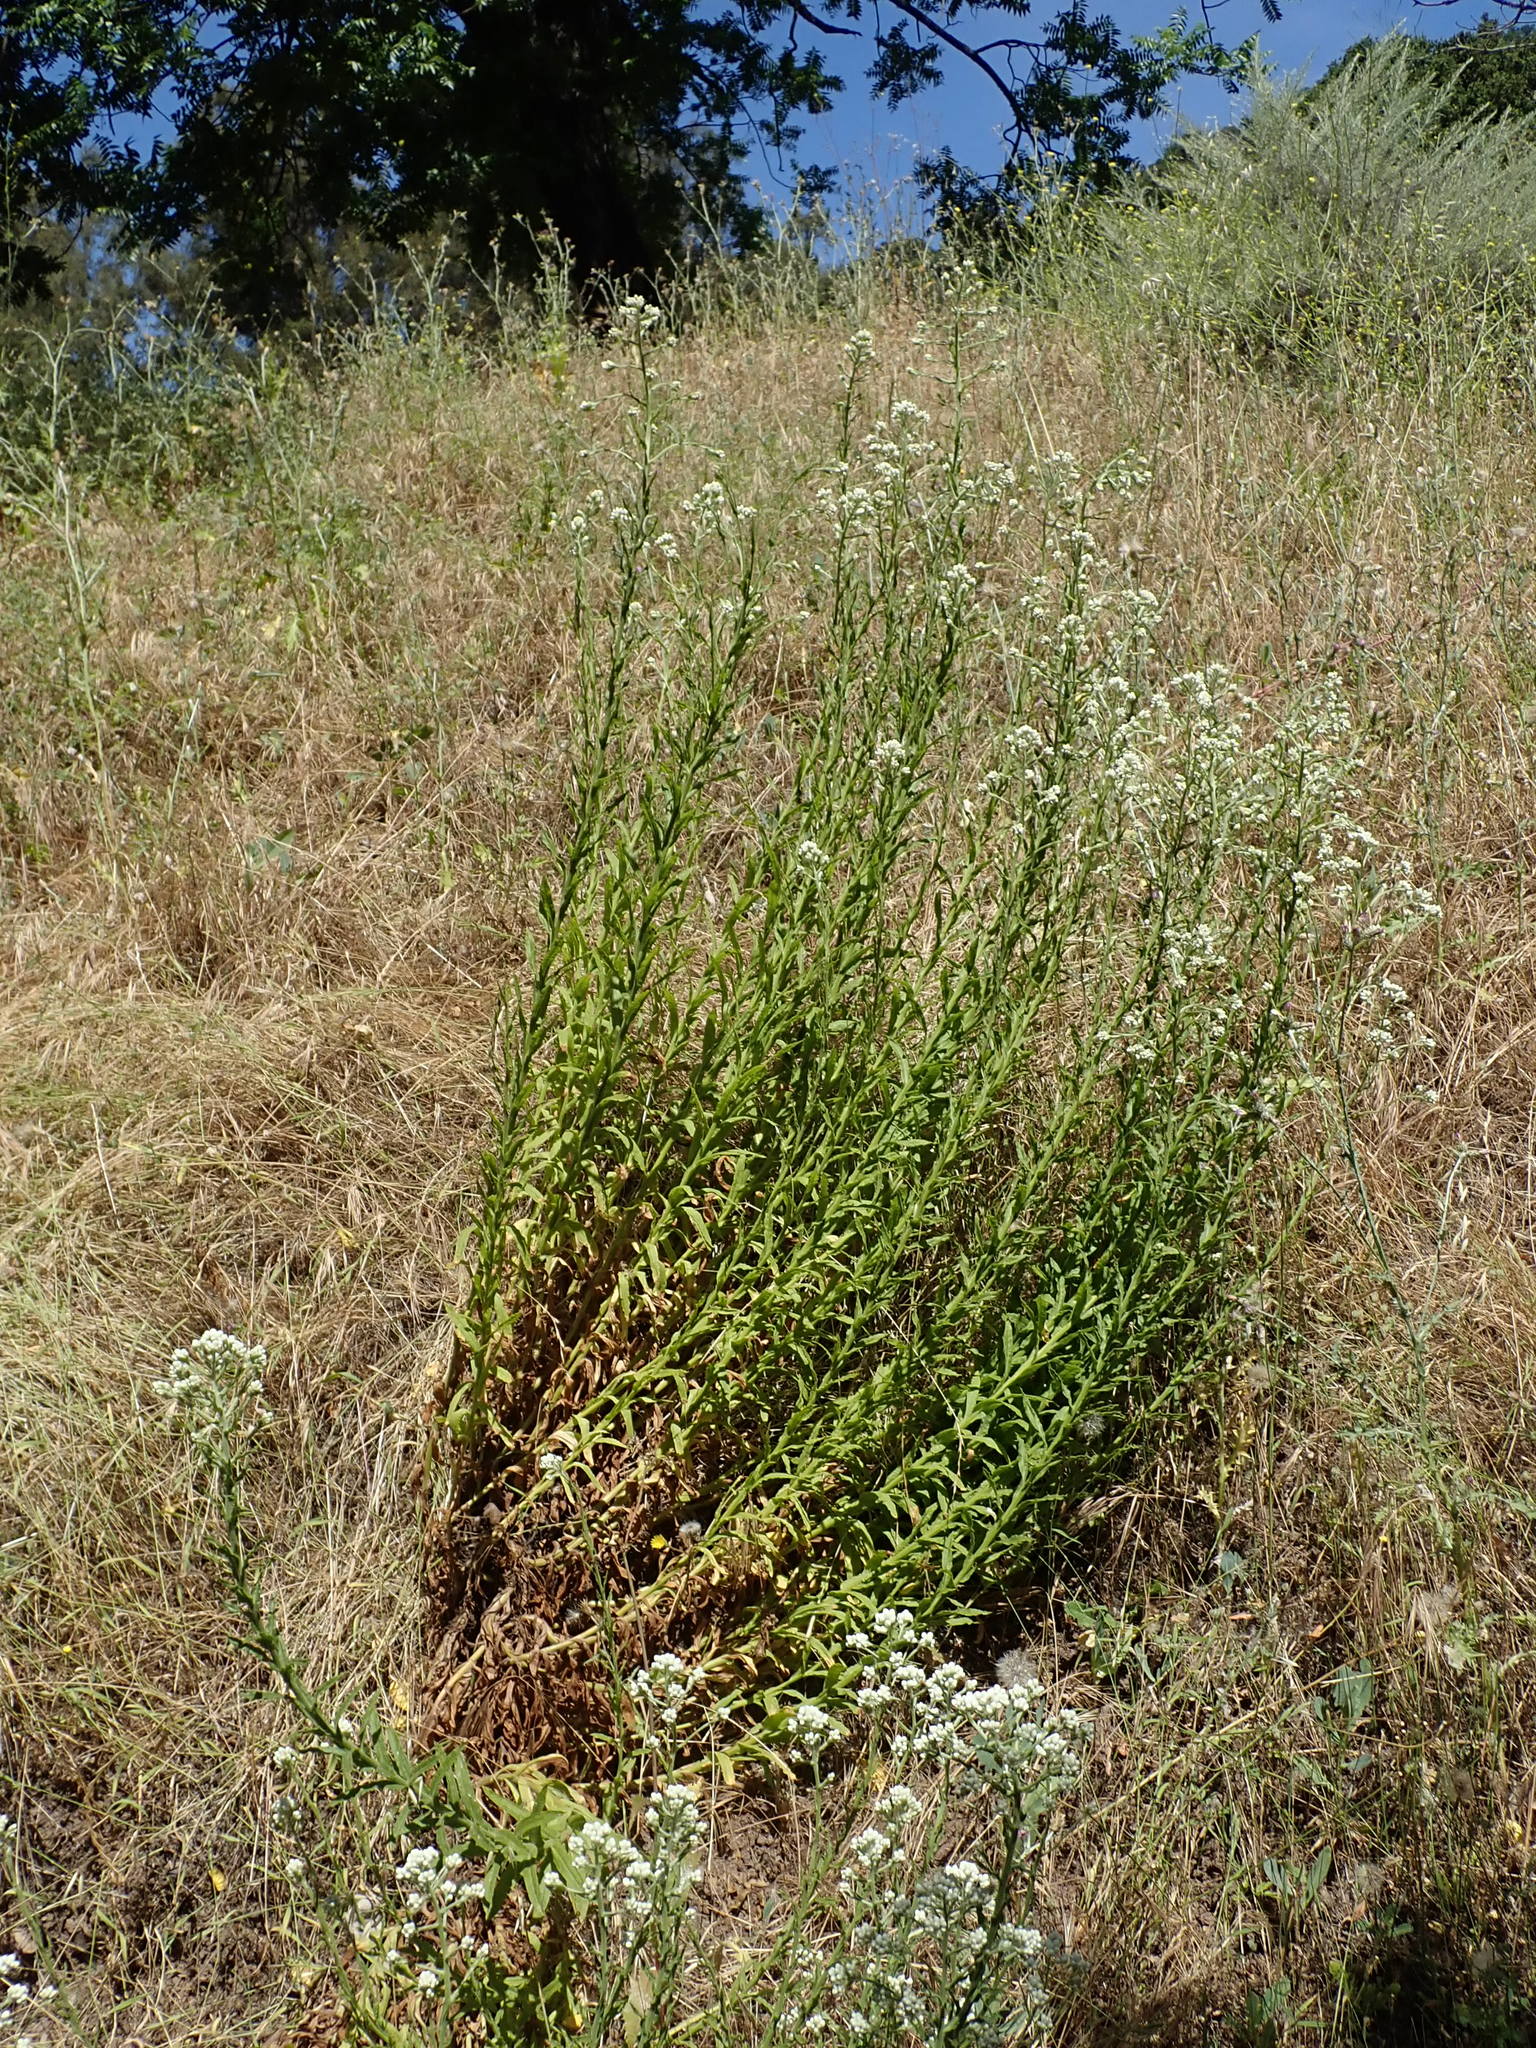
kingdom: Plantae
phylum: Tracheophyta
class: Magnoliopsida
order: Asterales
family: Asteraceae
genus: Pseudognaphalium
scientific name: Pseudognaphalium californicum
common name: California rabbit-tobacco
